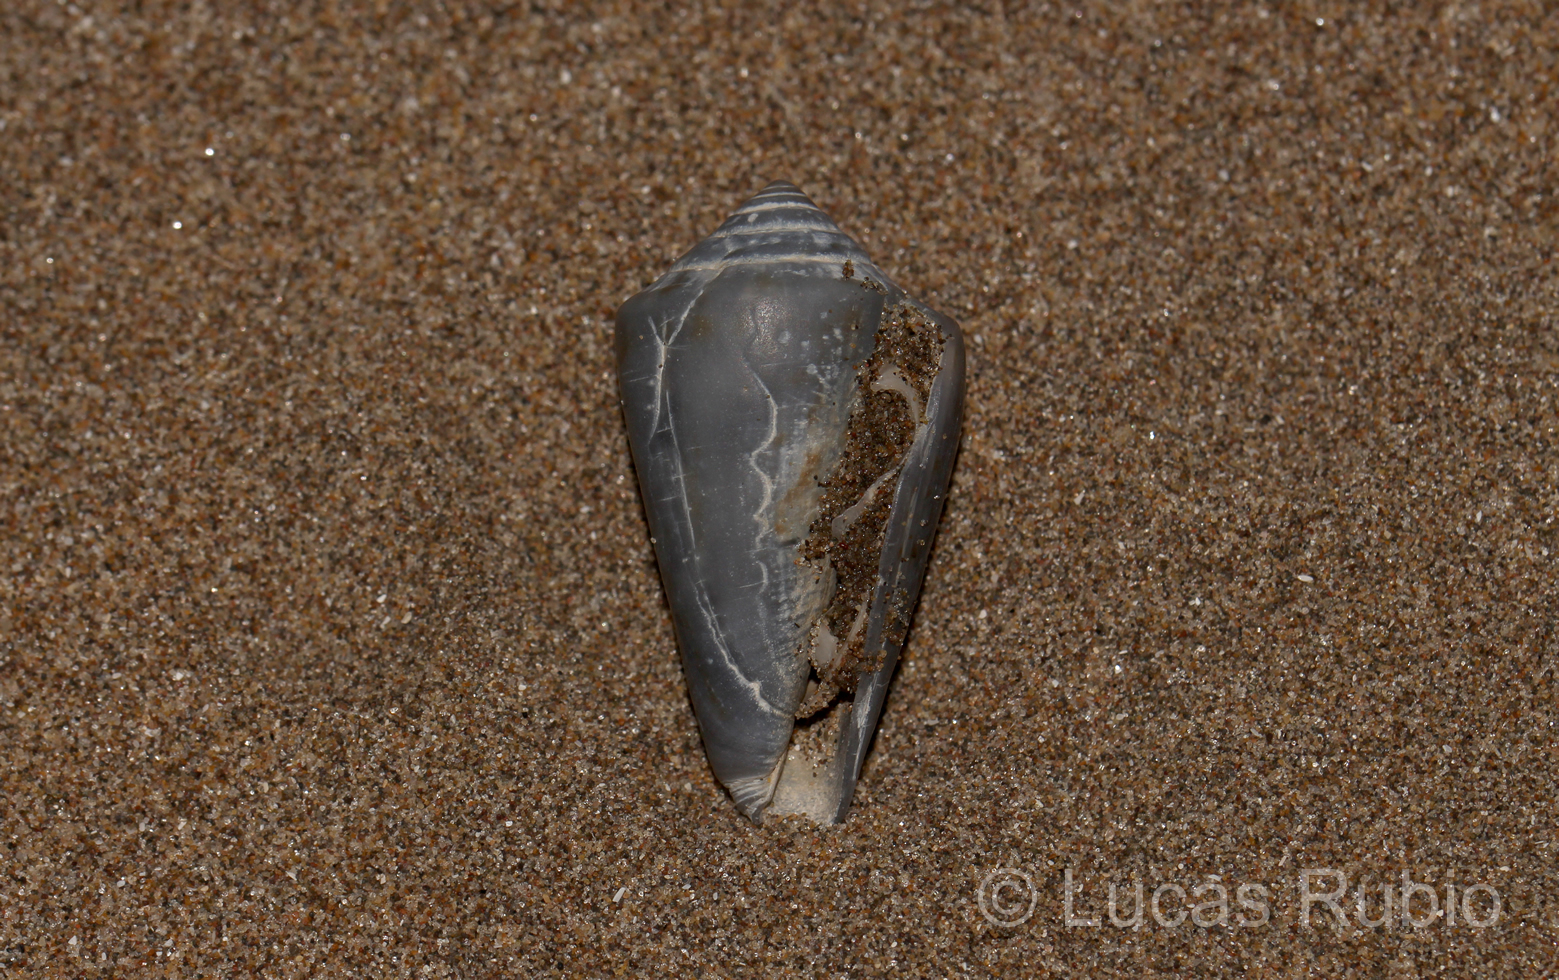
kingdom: Animalia
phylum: Mollusca
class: Gastropoda
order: Neogastropoda
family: Conidae
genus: Conus
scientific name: Conus carcellesi
